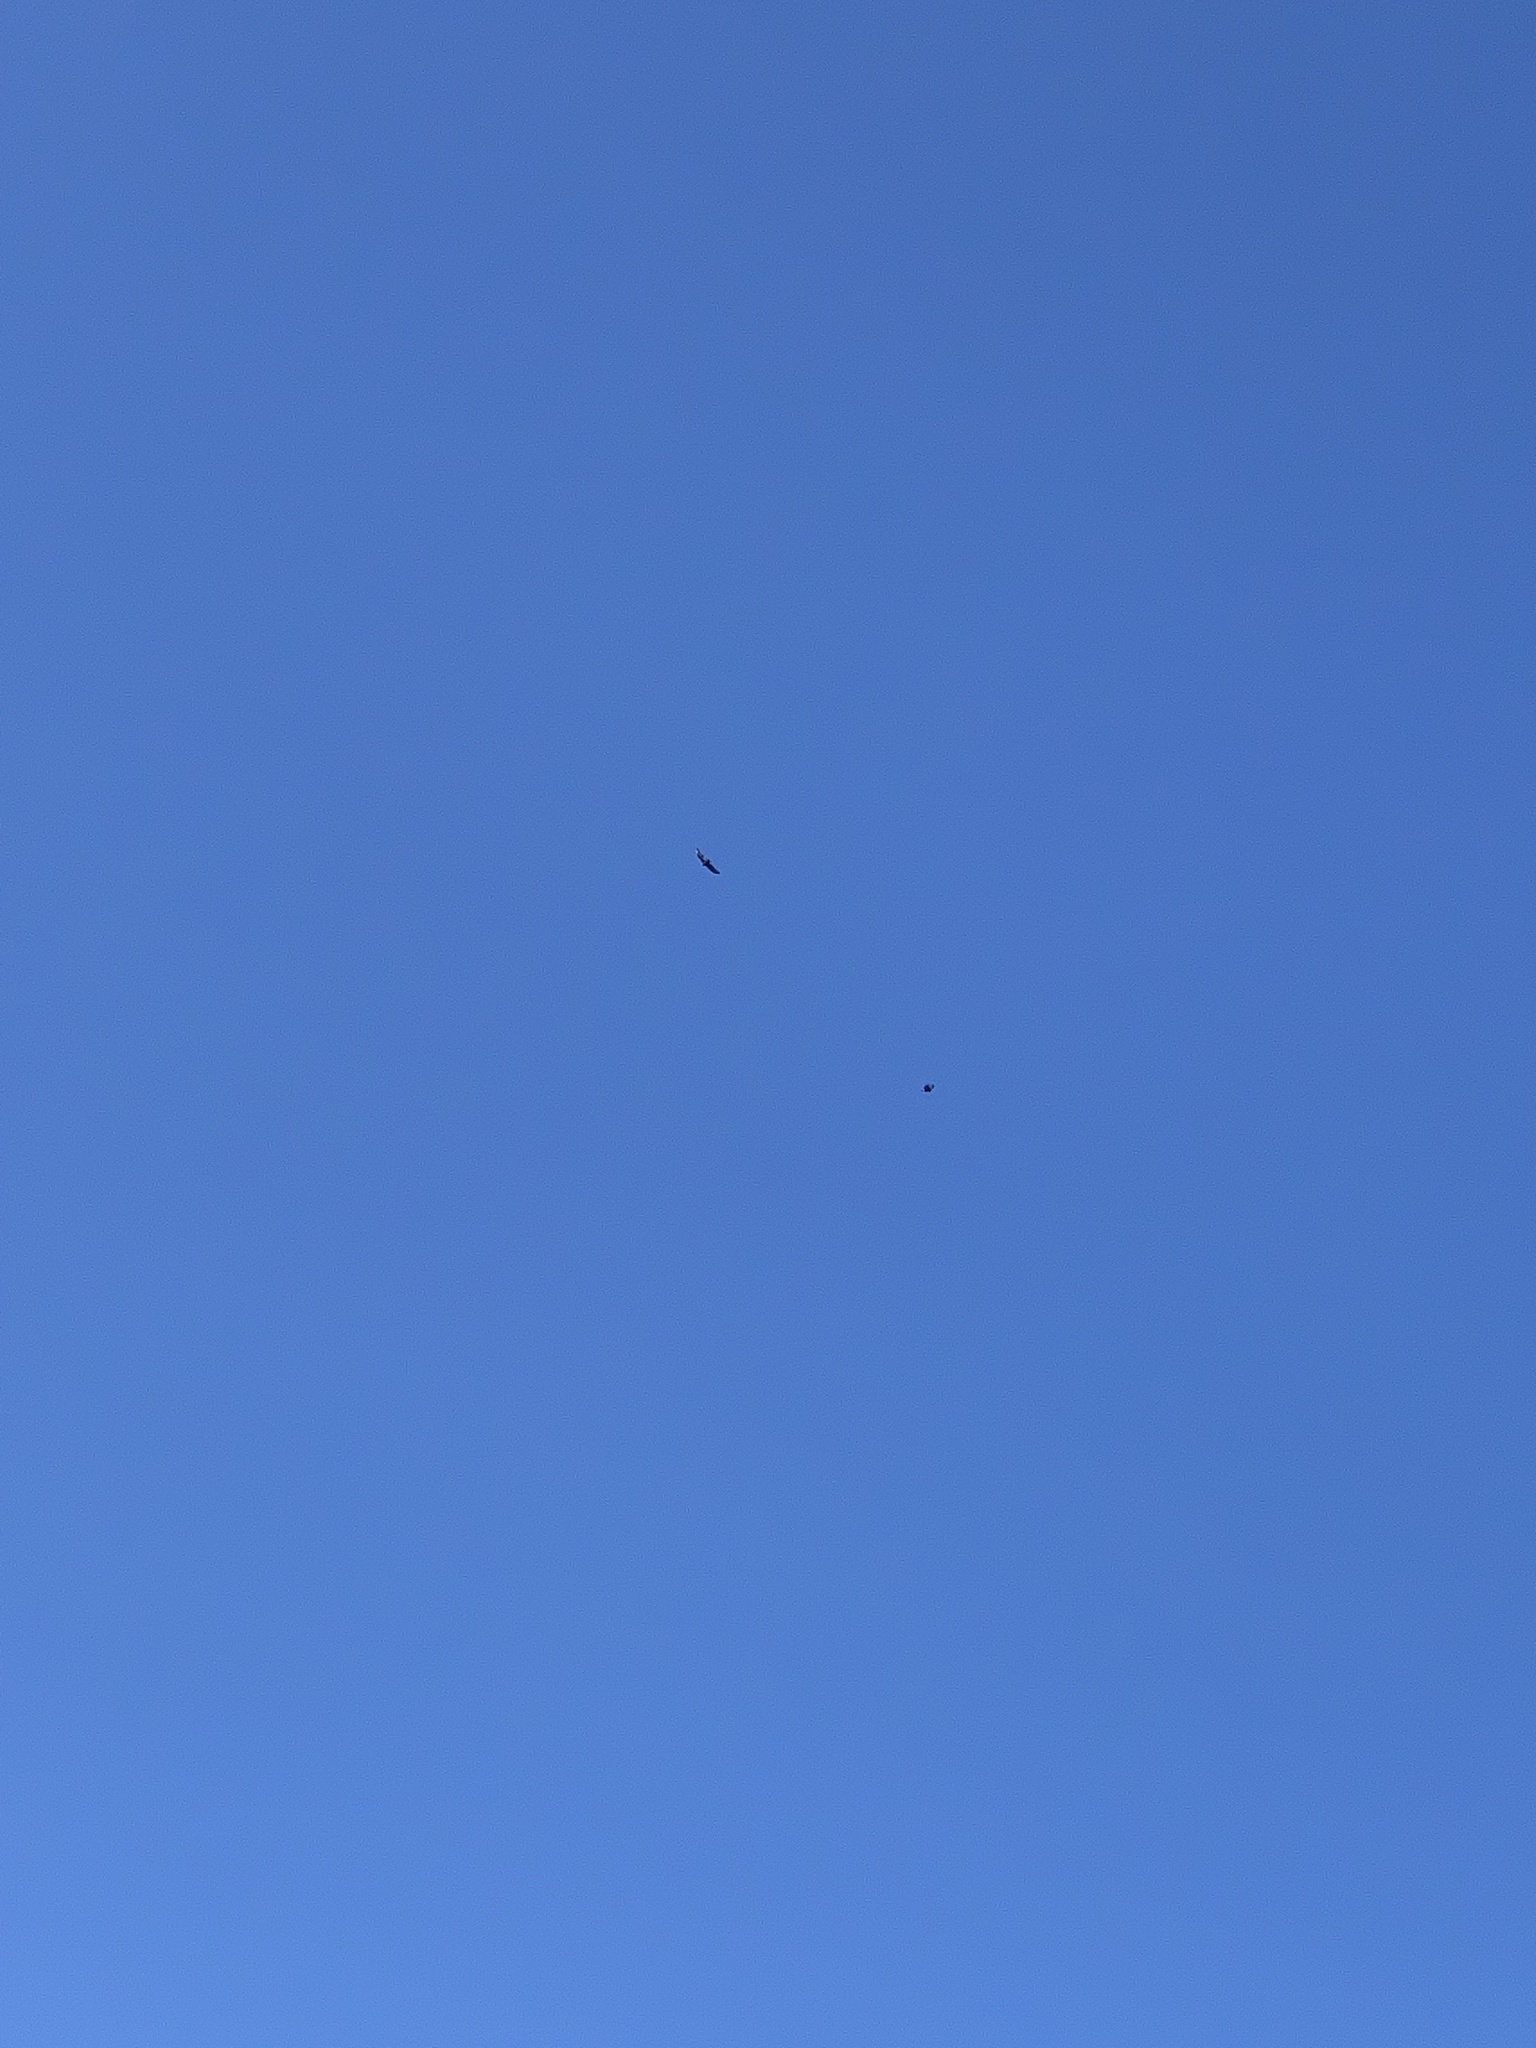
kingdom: Animalia
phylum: Chordata
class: Aves
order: Accipitriformes
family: Cathartidae
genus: Cathartes
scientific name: Cathartes aura
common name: Turkey vulture
